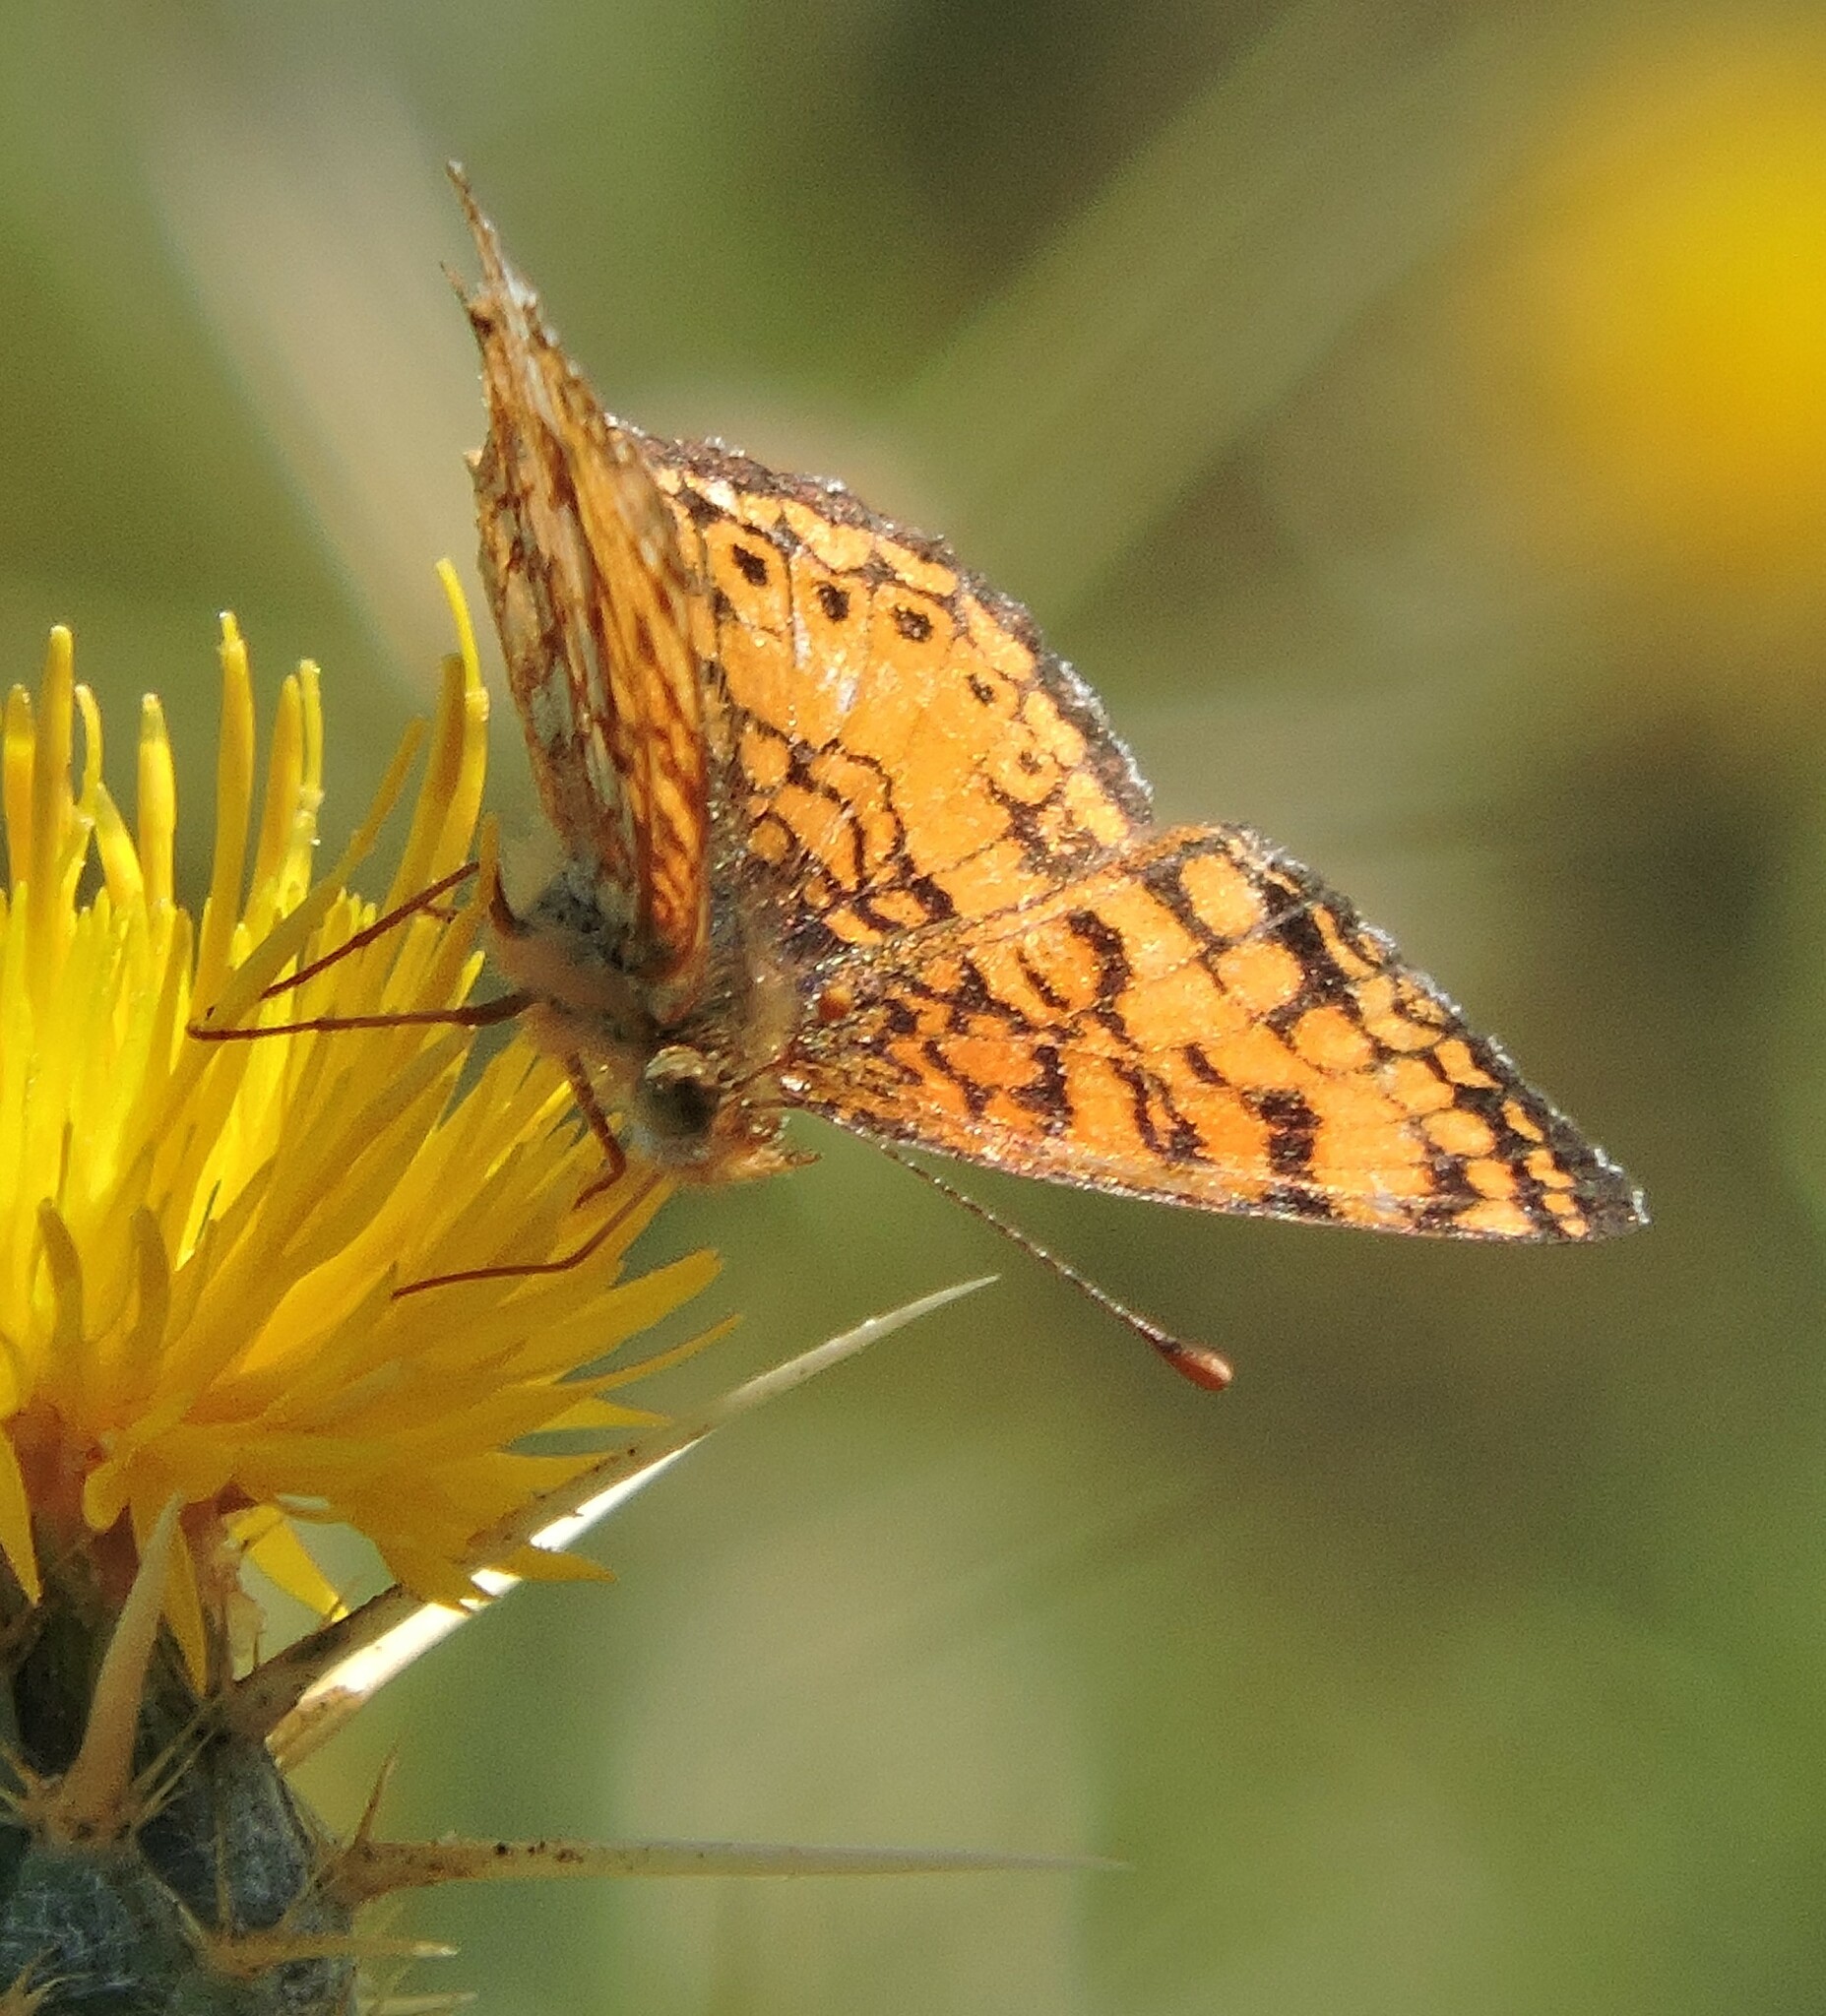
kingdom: Animalia
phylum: Arthropoda
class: Insecta
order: Lepidoptera
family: Nymphalidae
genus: Eresia
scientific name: Eresia aveyrona
